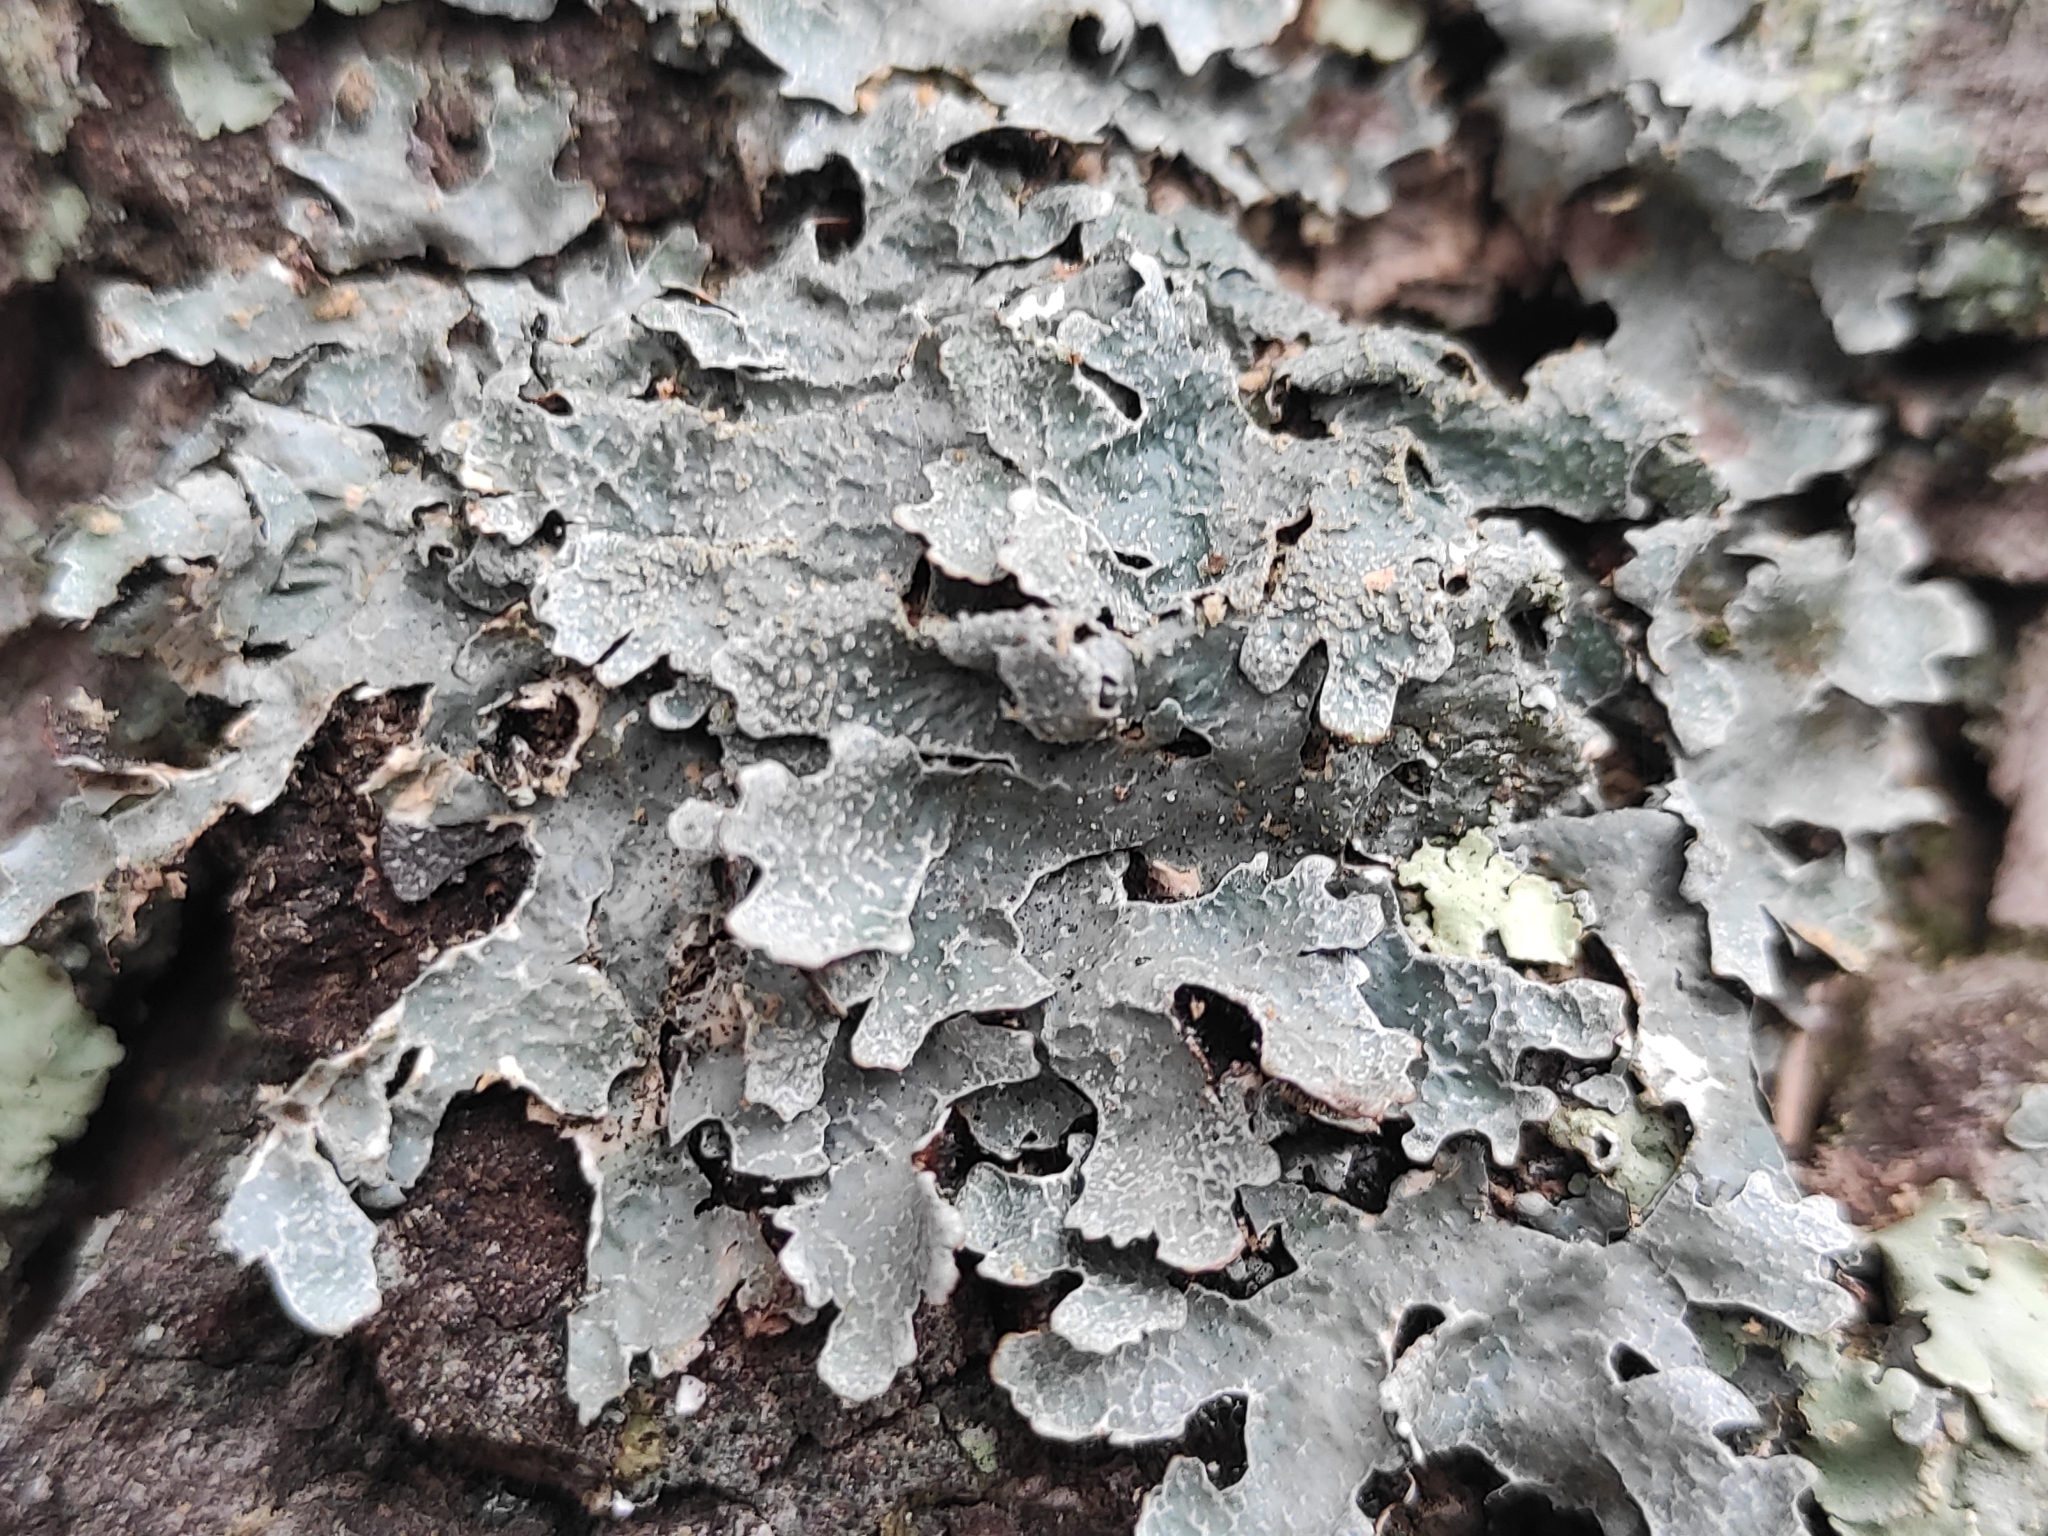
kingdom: Fungi
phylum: Ascomycota
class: Lecanoromycetes
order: Lecanorales
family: Parmeliaceae
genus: Parmelia
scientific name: Parmelia sulcata
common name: Netted shield lichen
